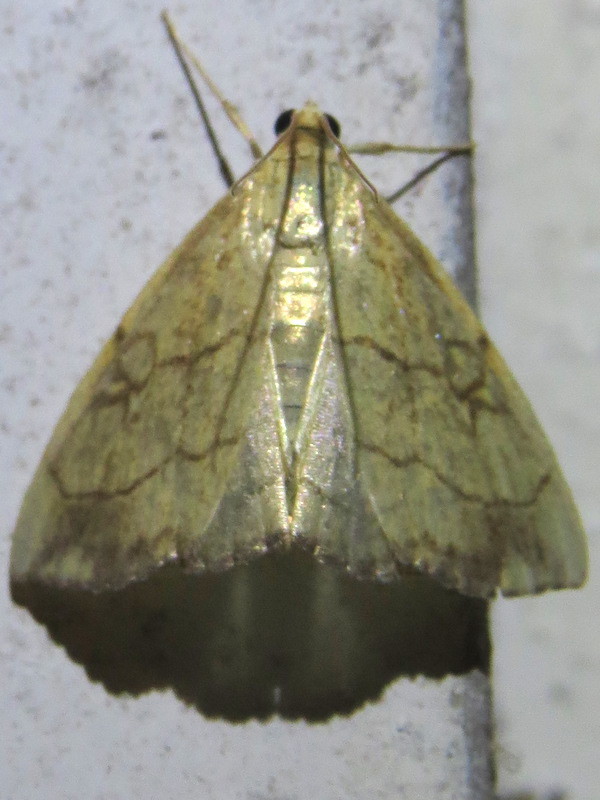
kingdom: Animalia
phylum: Arthropoda
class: Insecta
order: Lepidoptera
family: Crambidae
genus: Evergestis
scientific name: Evergestis pallidata
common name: Chequered pearl
